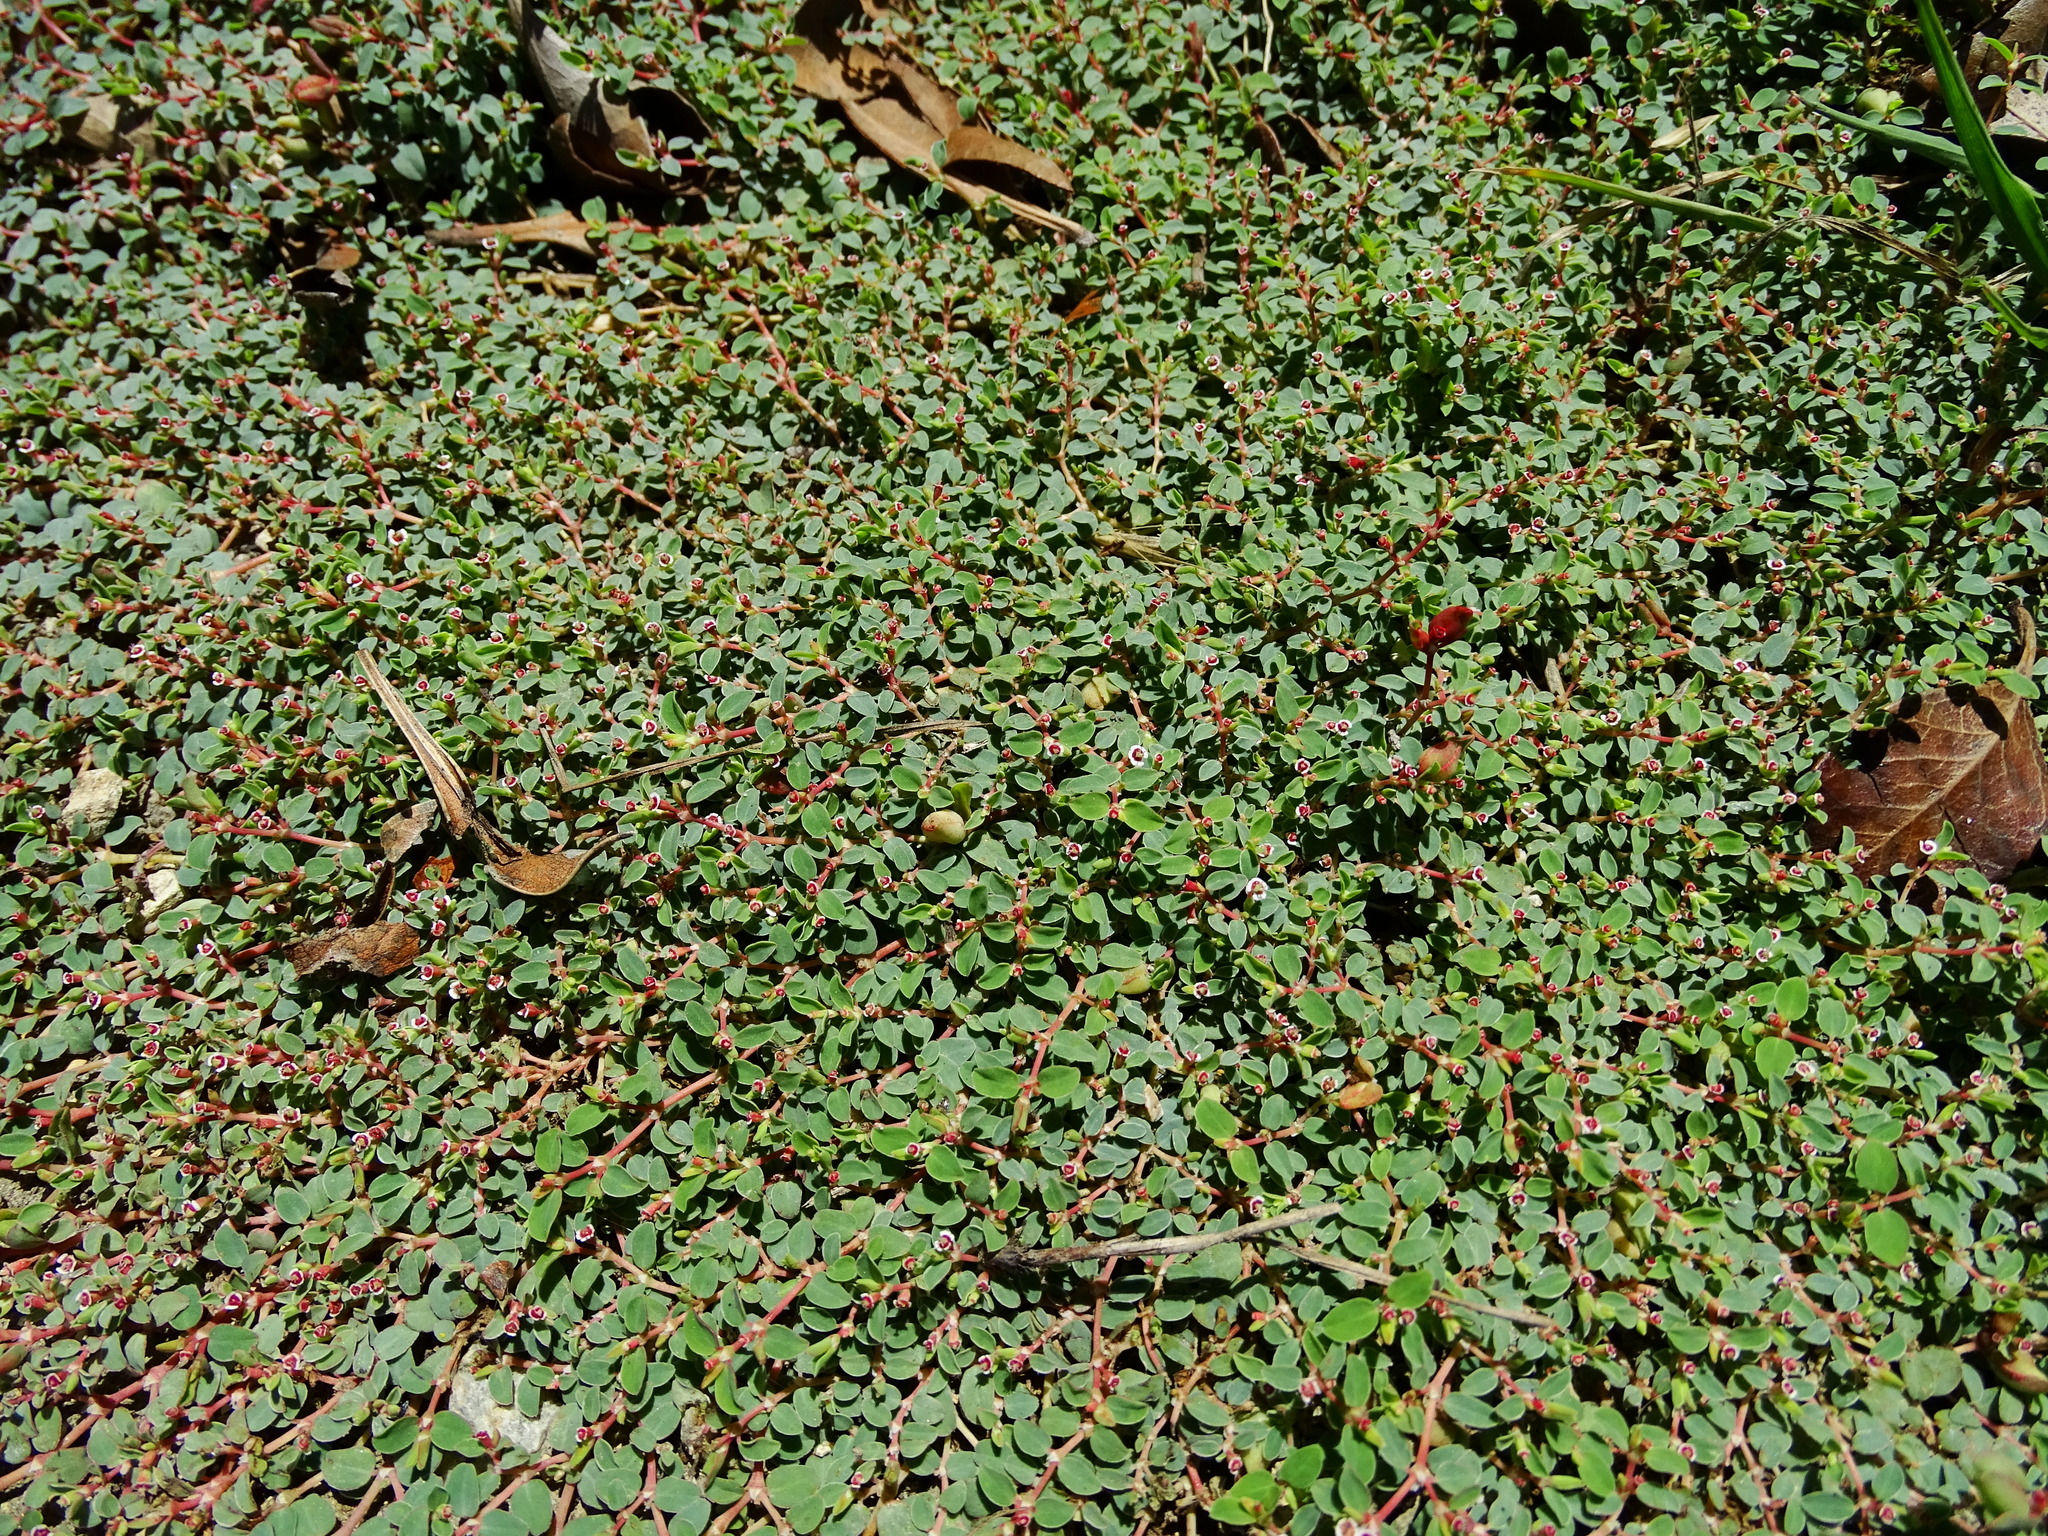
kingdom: Plantae
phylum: Tracheophyta
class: Magnoliopsida
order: Malpighiales
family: Euphorbiaceae
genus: Euphorbia
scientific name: Euphorbia serpens
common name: Matted sandmat
